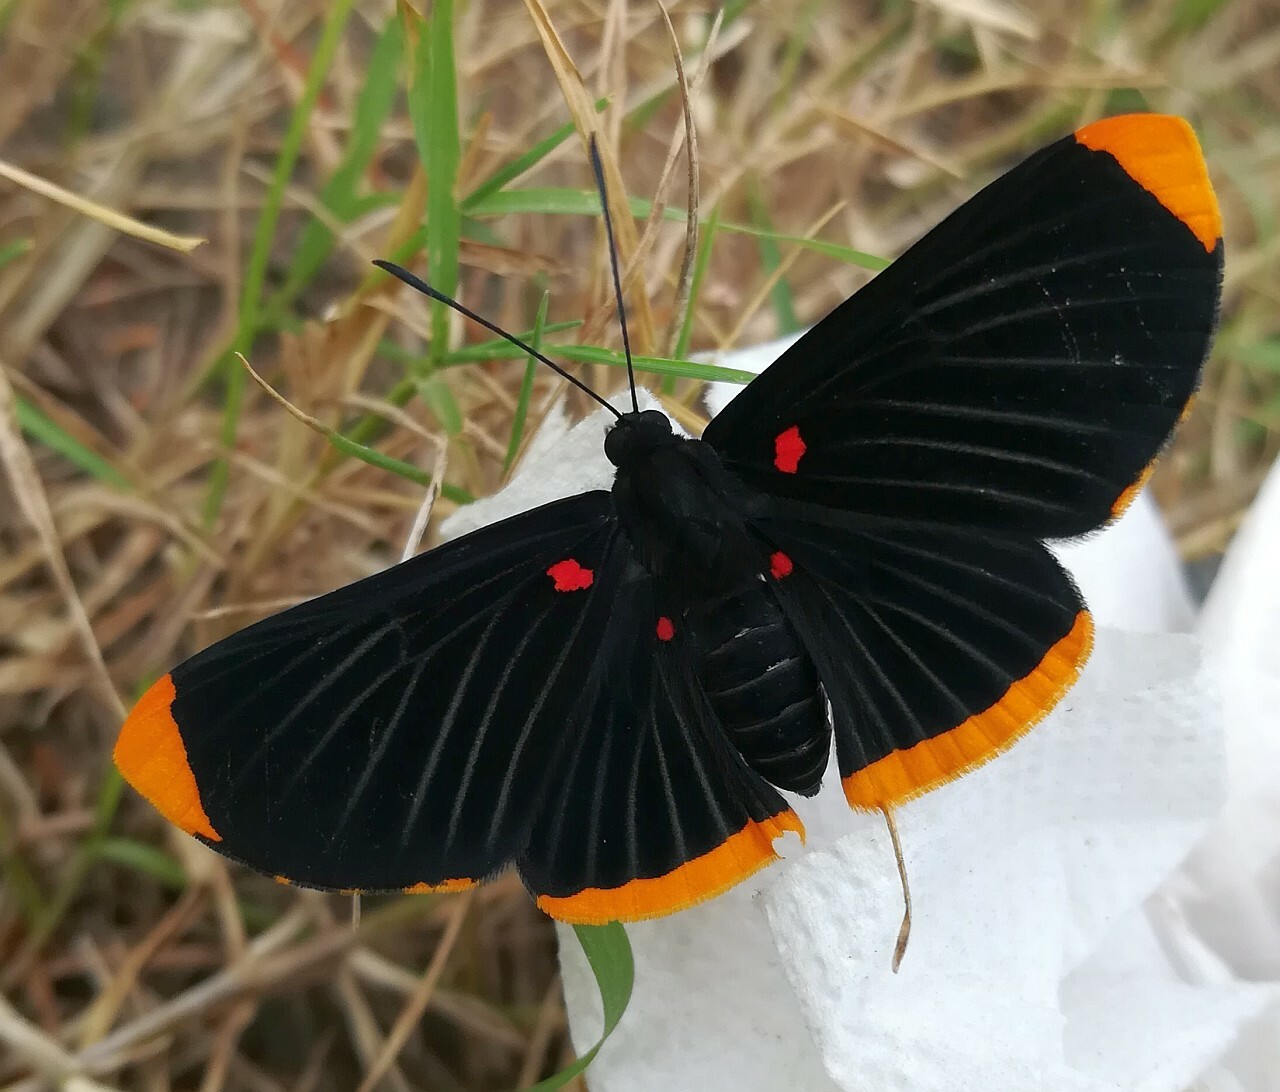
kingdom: Animalia
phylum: Arthropoda
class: Insecta
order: Lepidoptera
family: Lycaenidae
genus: Melanis
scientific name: Melanis smithiae
